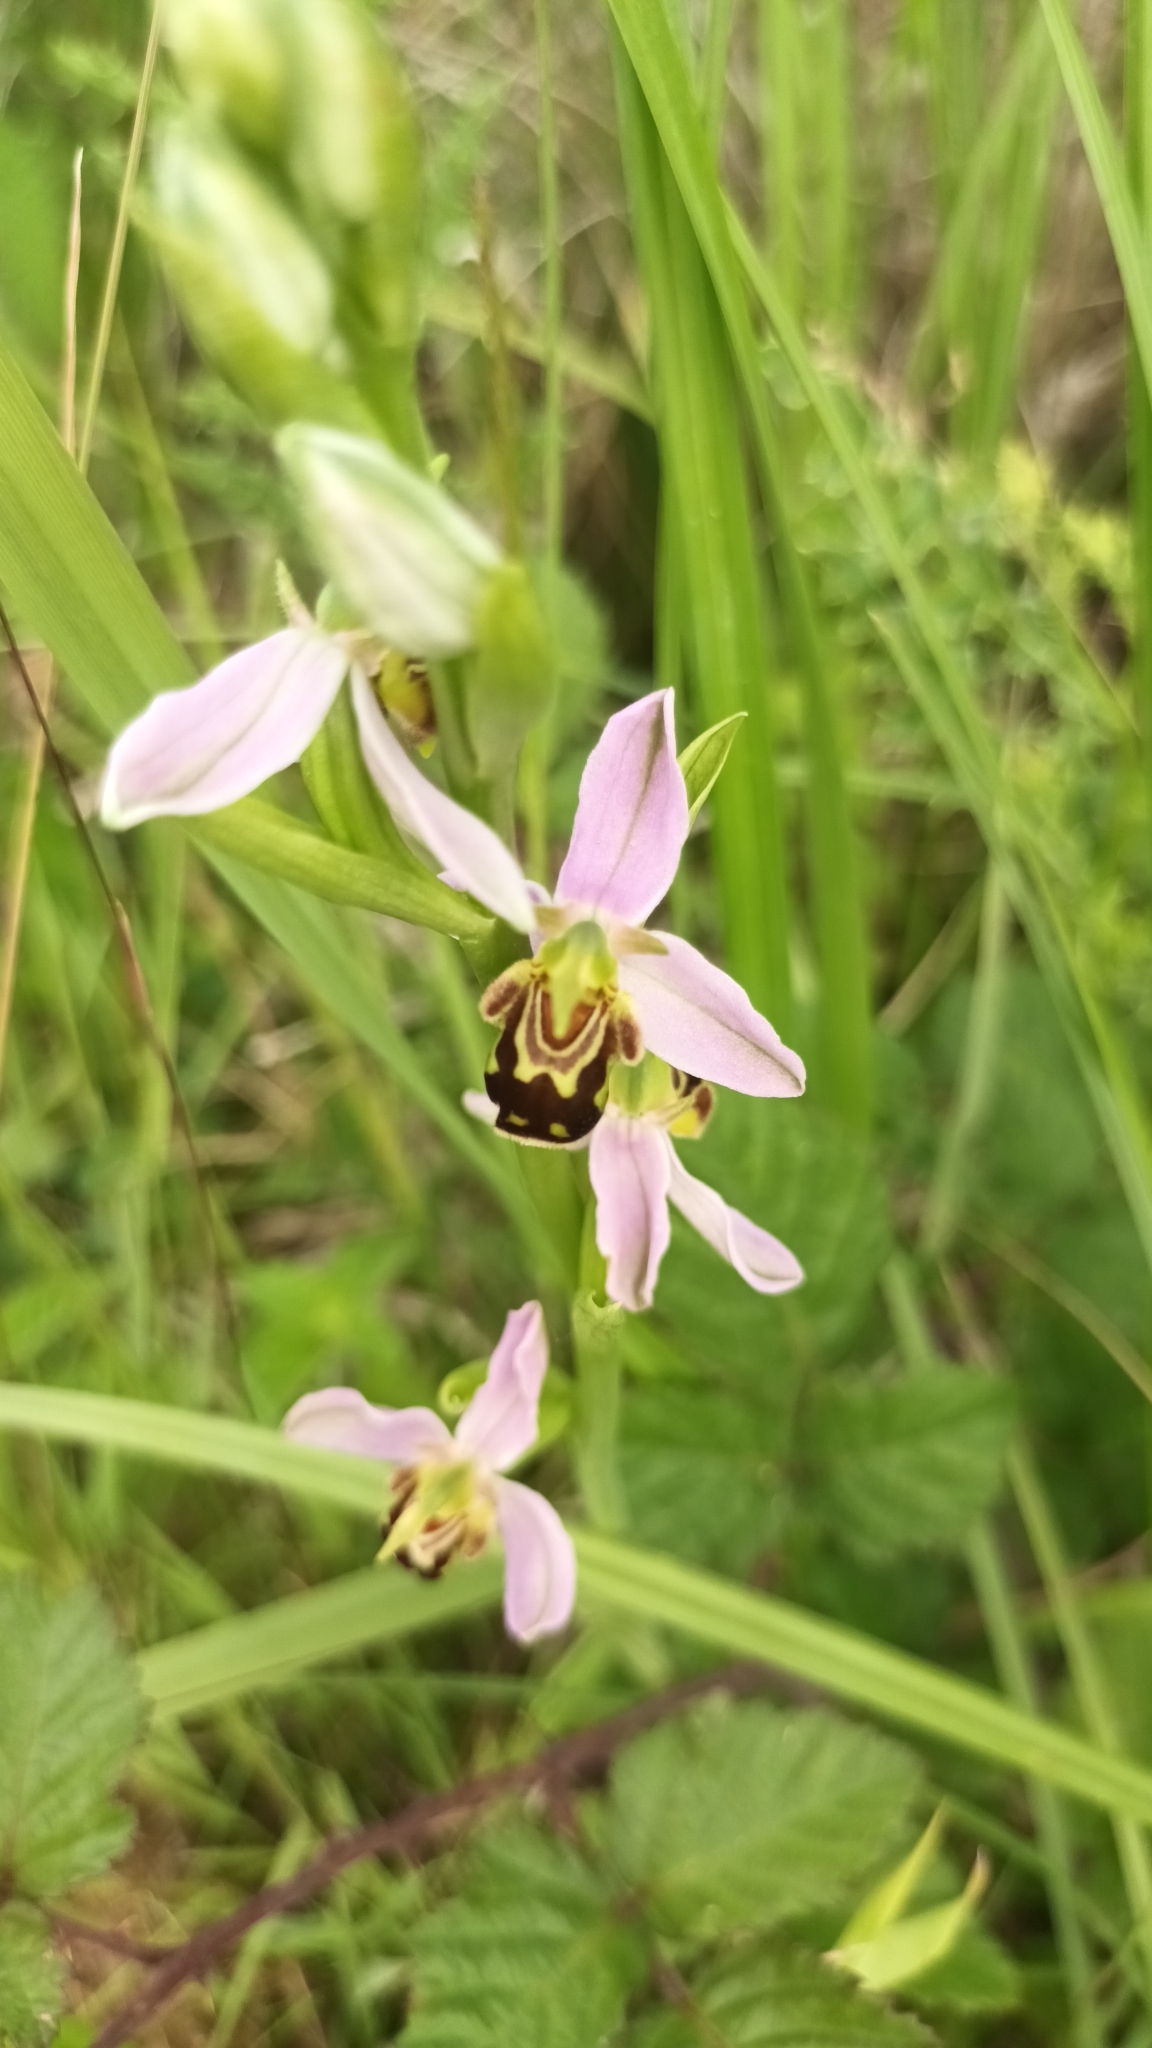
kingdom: Plantae
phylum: Tracheophyta
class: Liliopsida
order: Asparagales
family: Orchidaceae
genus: Ophrys
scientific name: Ophrys apifera
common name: Bee orchid
